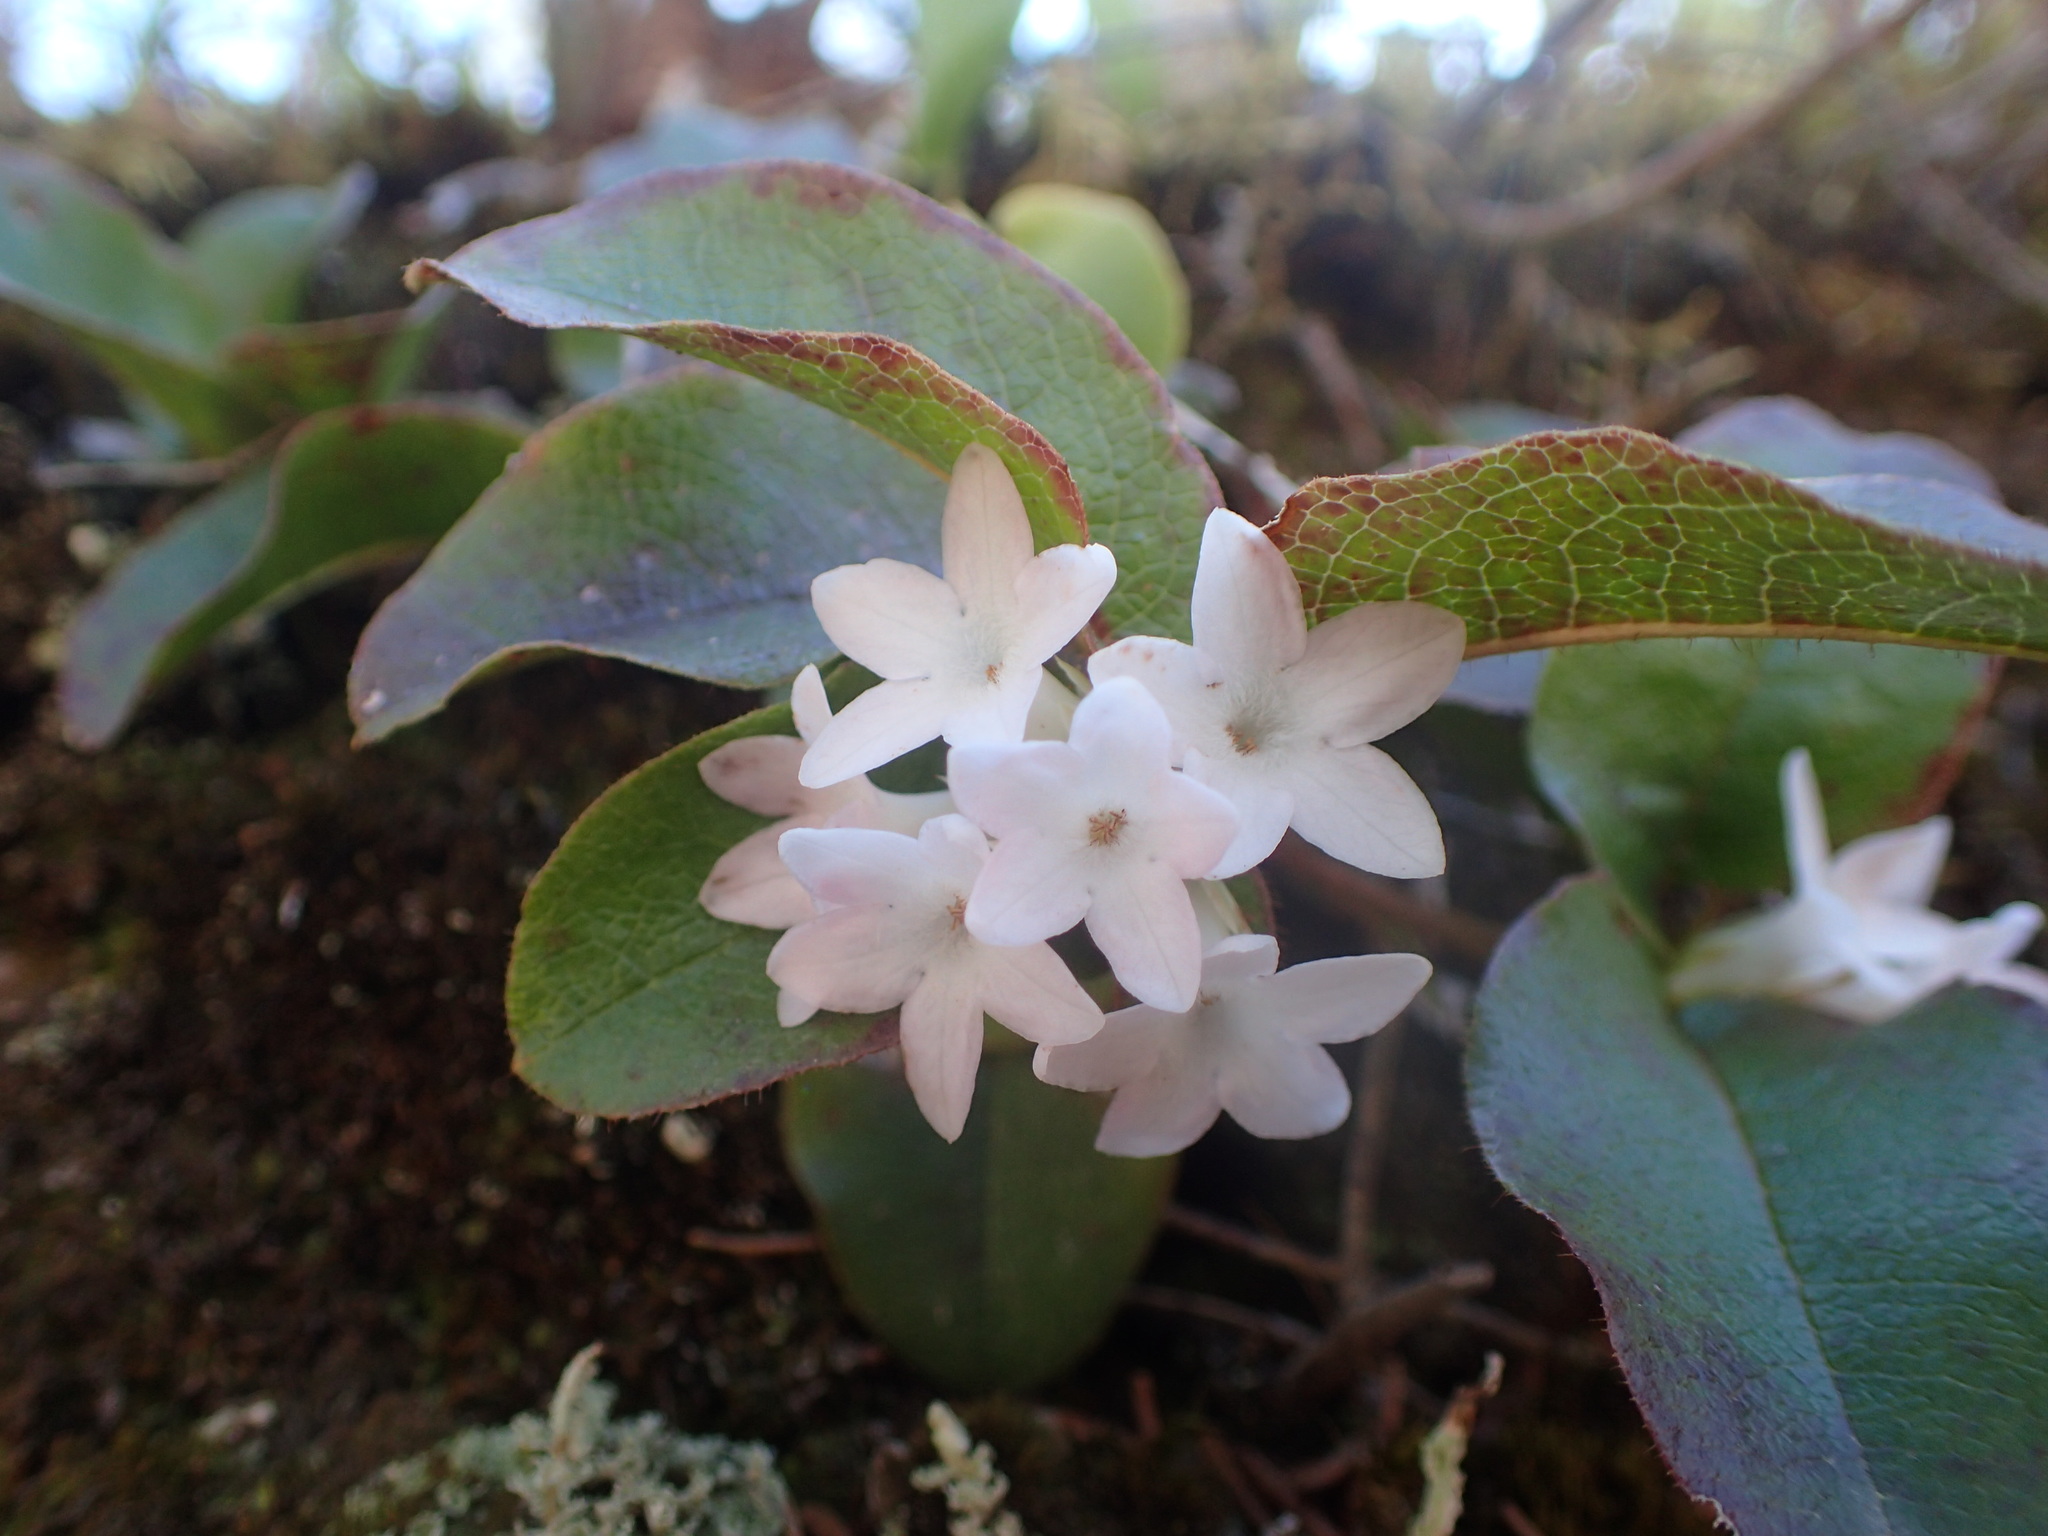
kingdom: Plantae
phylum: Tracheophyta
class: Magnoliopsida
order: Ericales
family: Ericaceae
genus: Epigaea
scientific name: Epigaea repens
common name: Gravelroot
